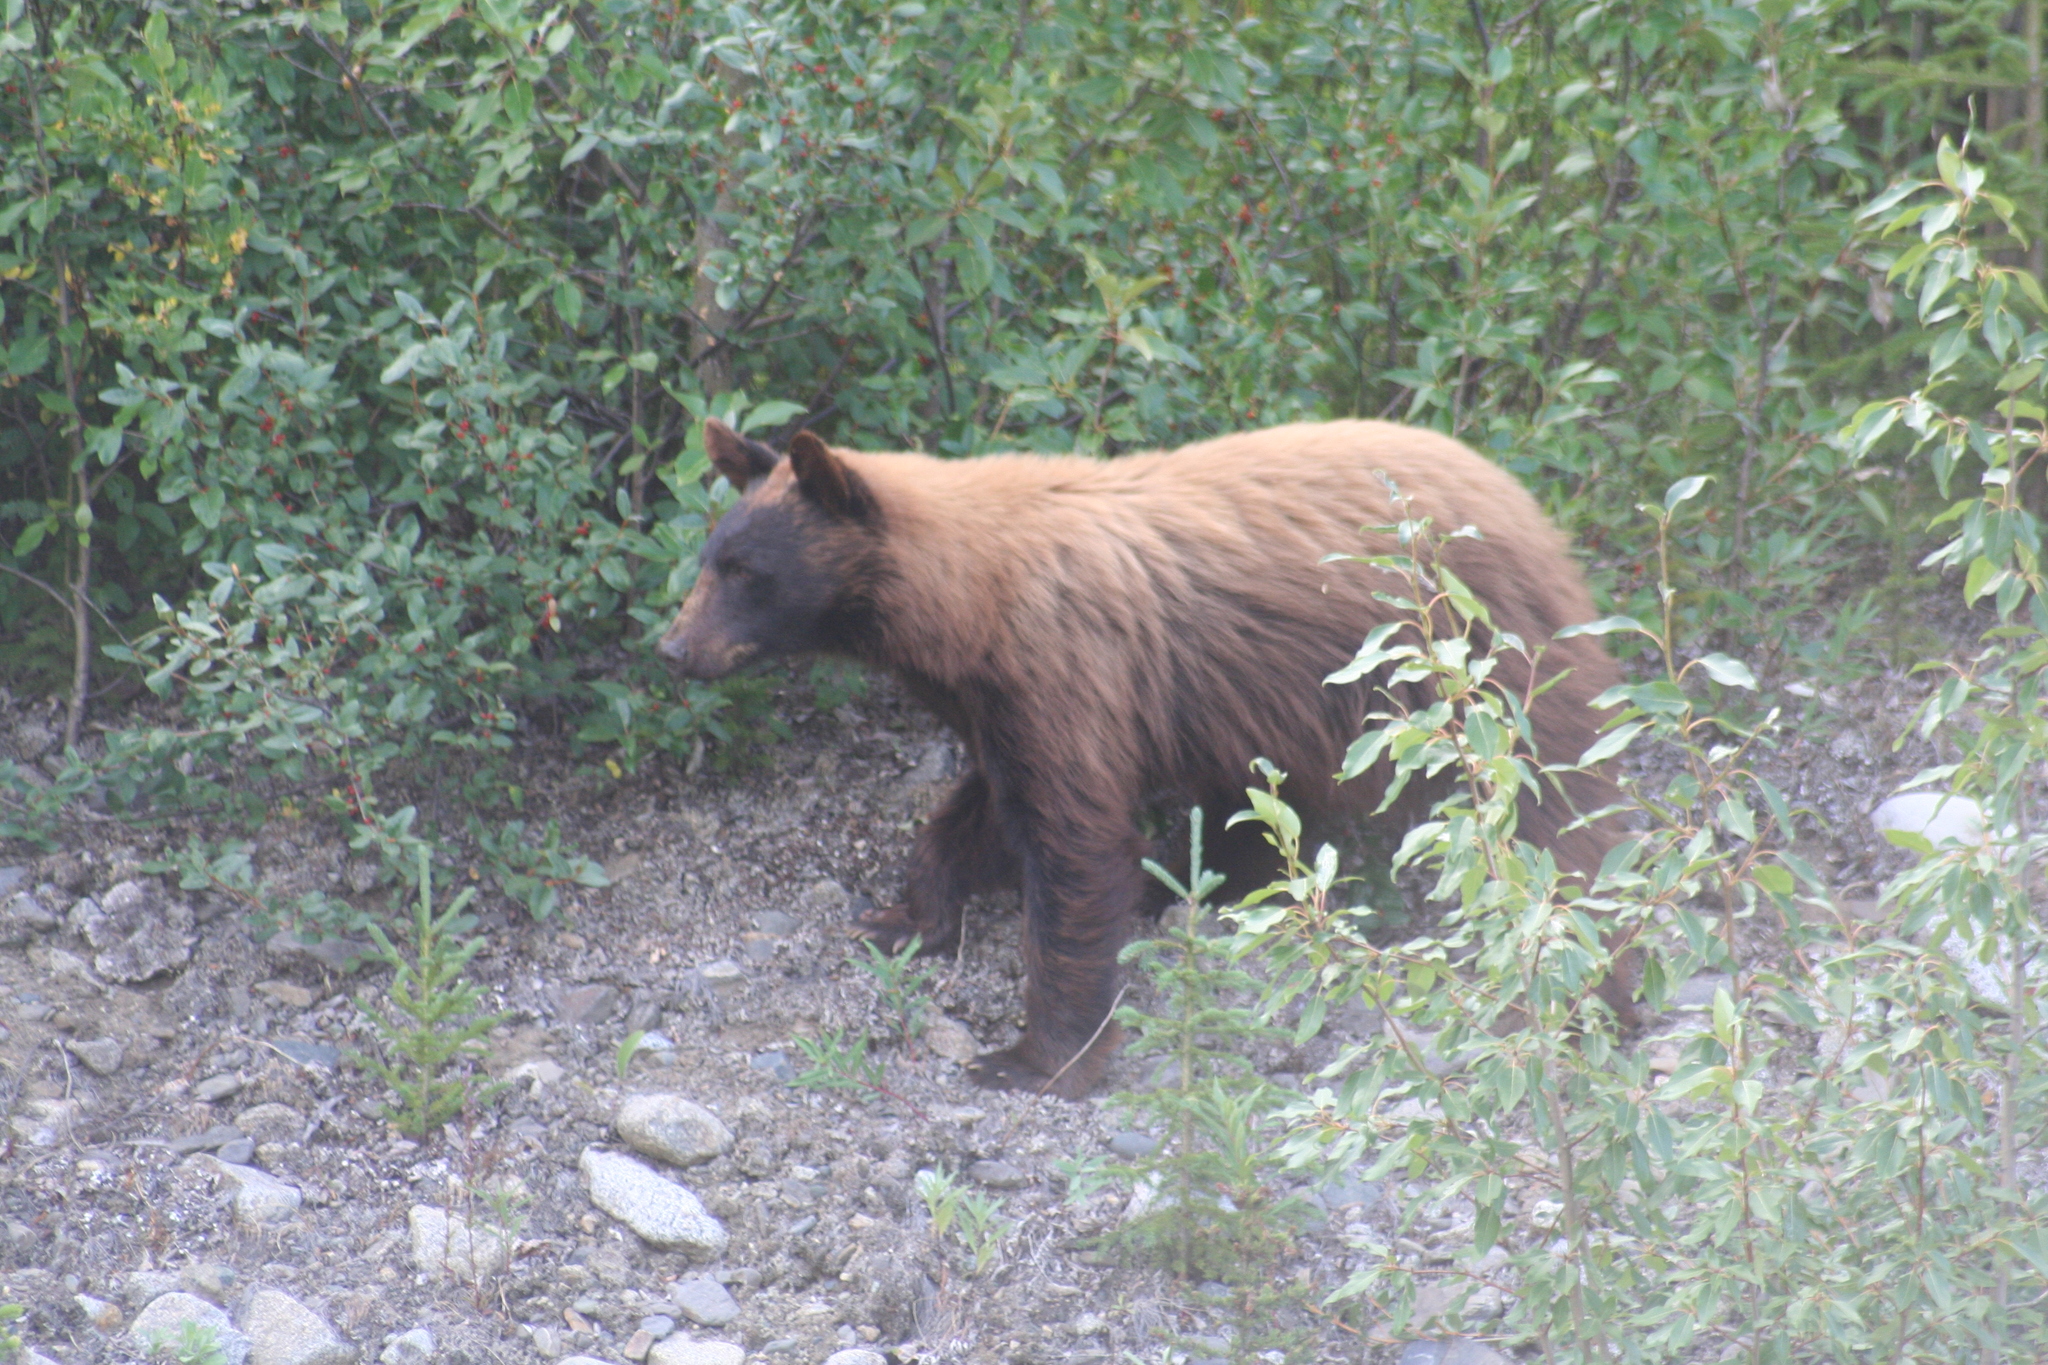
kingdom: Animalia
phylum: Chordata
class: Mammalia
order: Carnivora
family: Ursidae
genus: Ursus
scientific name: Ursus americanus
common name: American black bear
